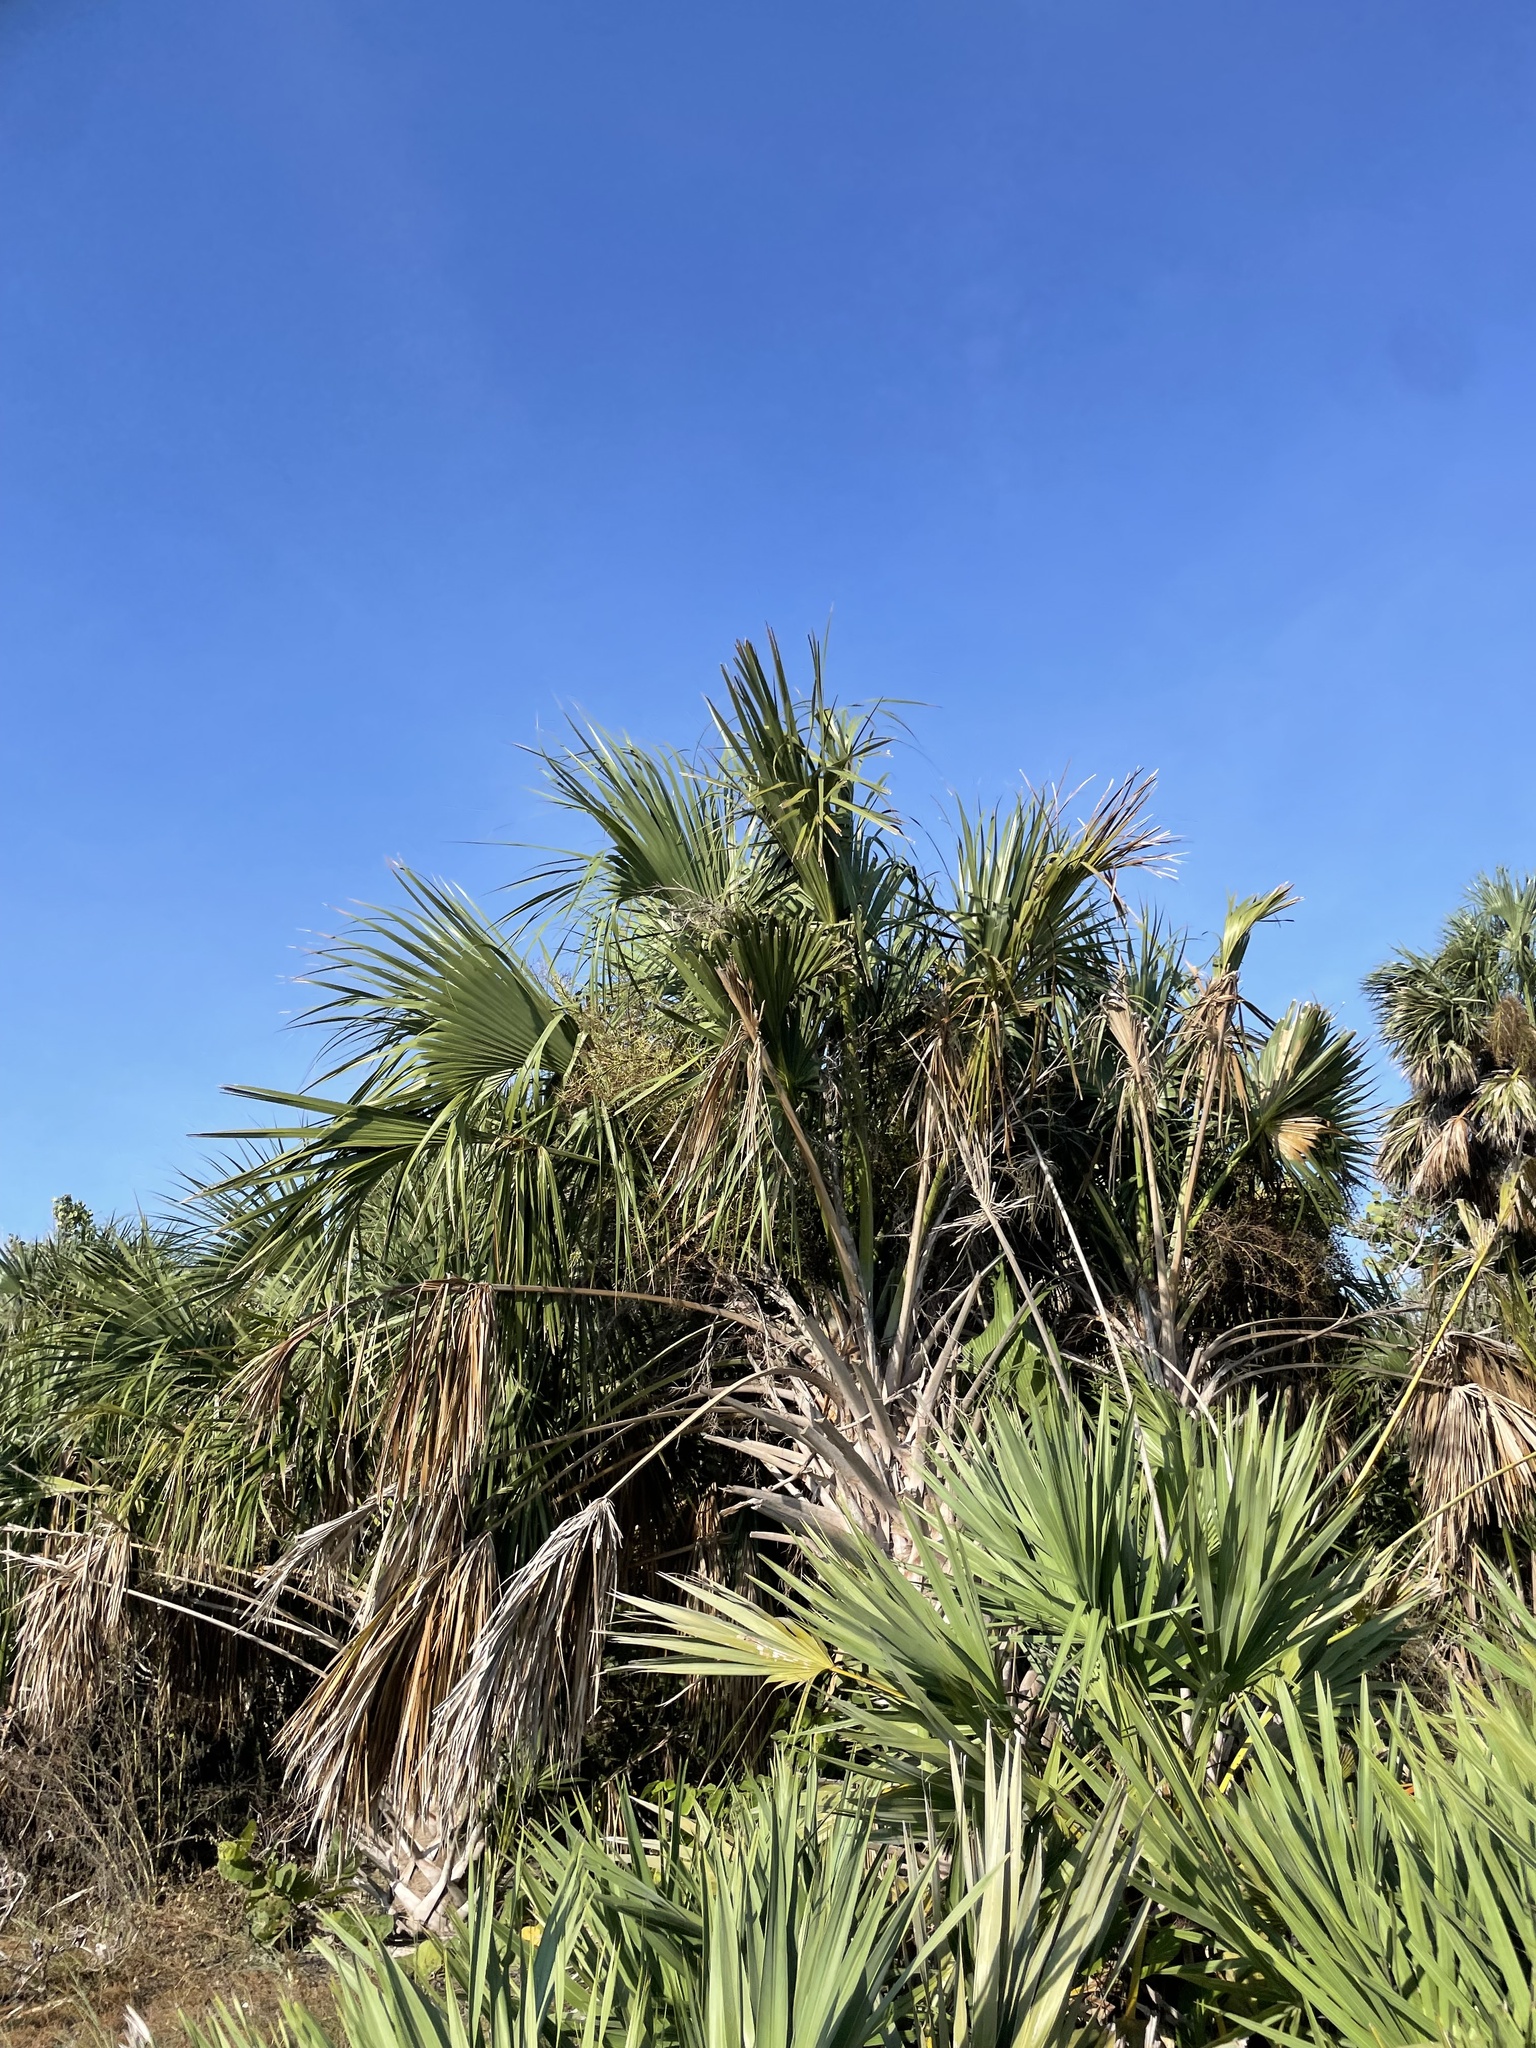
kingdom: Plantae
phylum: Tracheophyta
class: Liliopsida
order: Arecales
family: Arecaceae
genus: Sabal
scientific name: Sabal palmetto
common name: Blue palmetto
